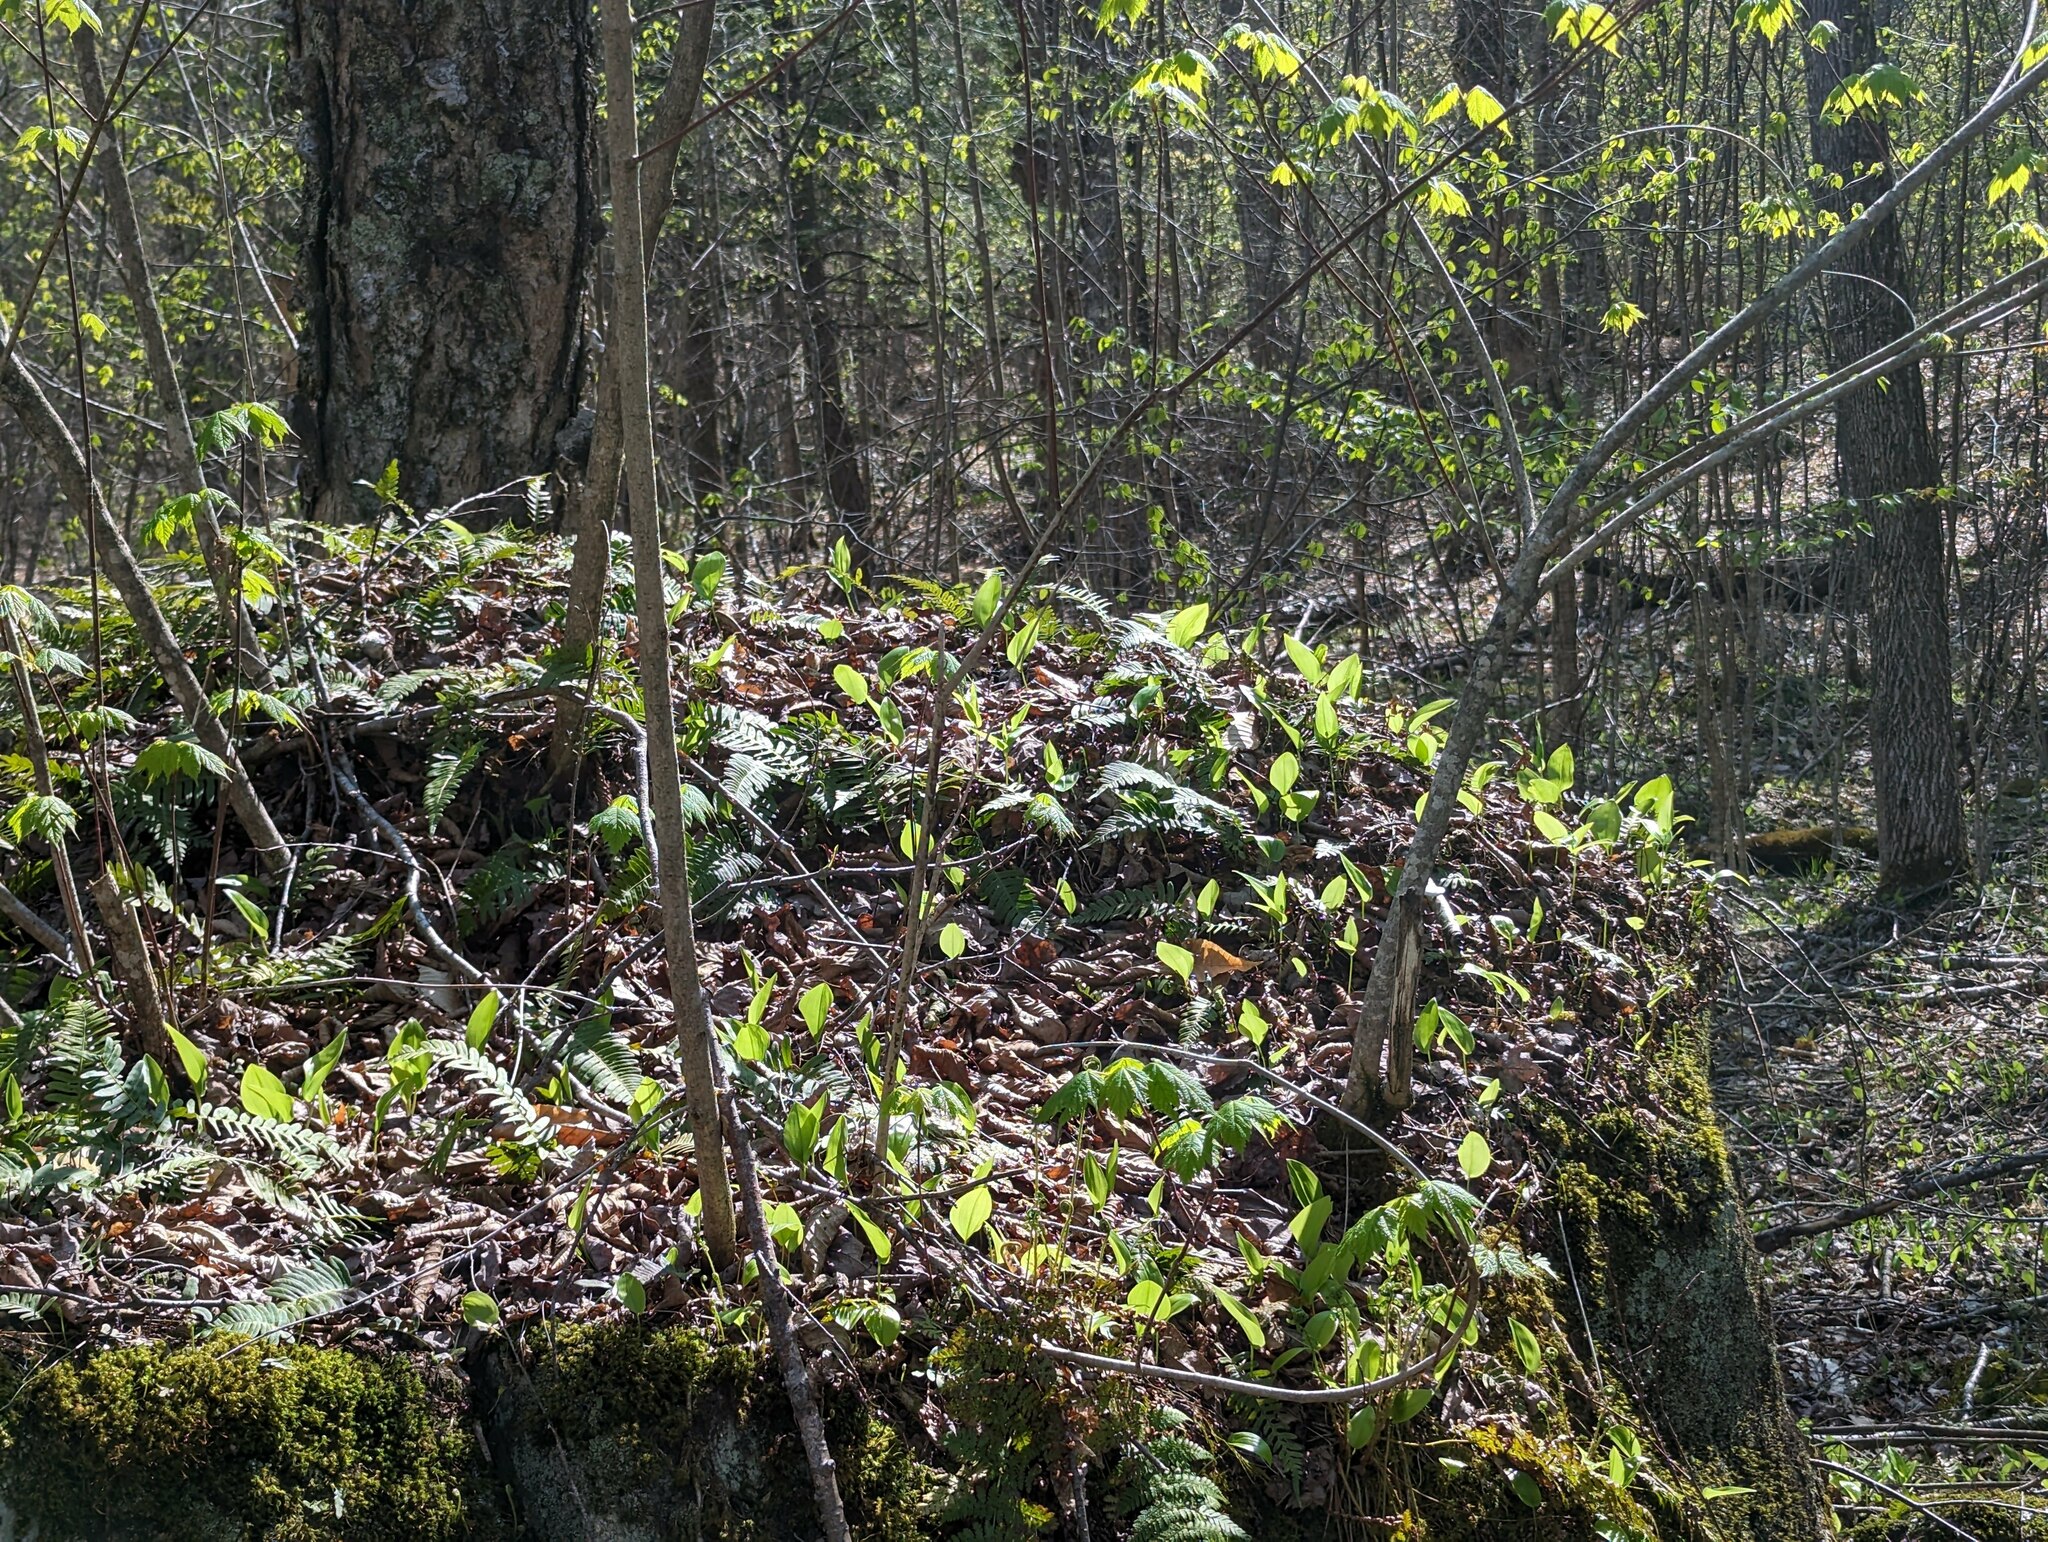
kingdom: Plantae
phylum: Tracheophyta
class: Liliopsida
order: Asparagales
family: Asparagaceae
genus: Maianthemum
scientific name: Maianthemum canadense
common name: False lily-of-the-valley
